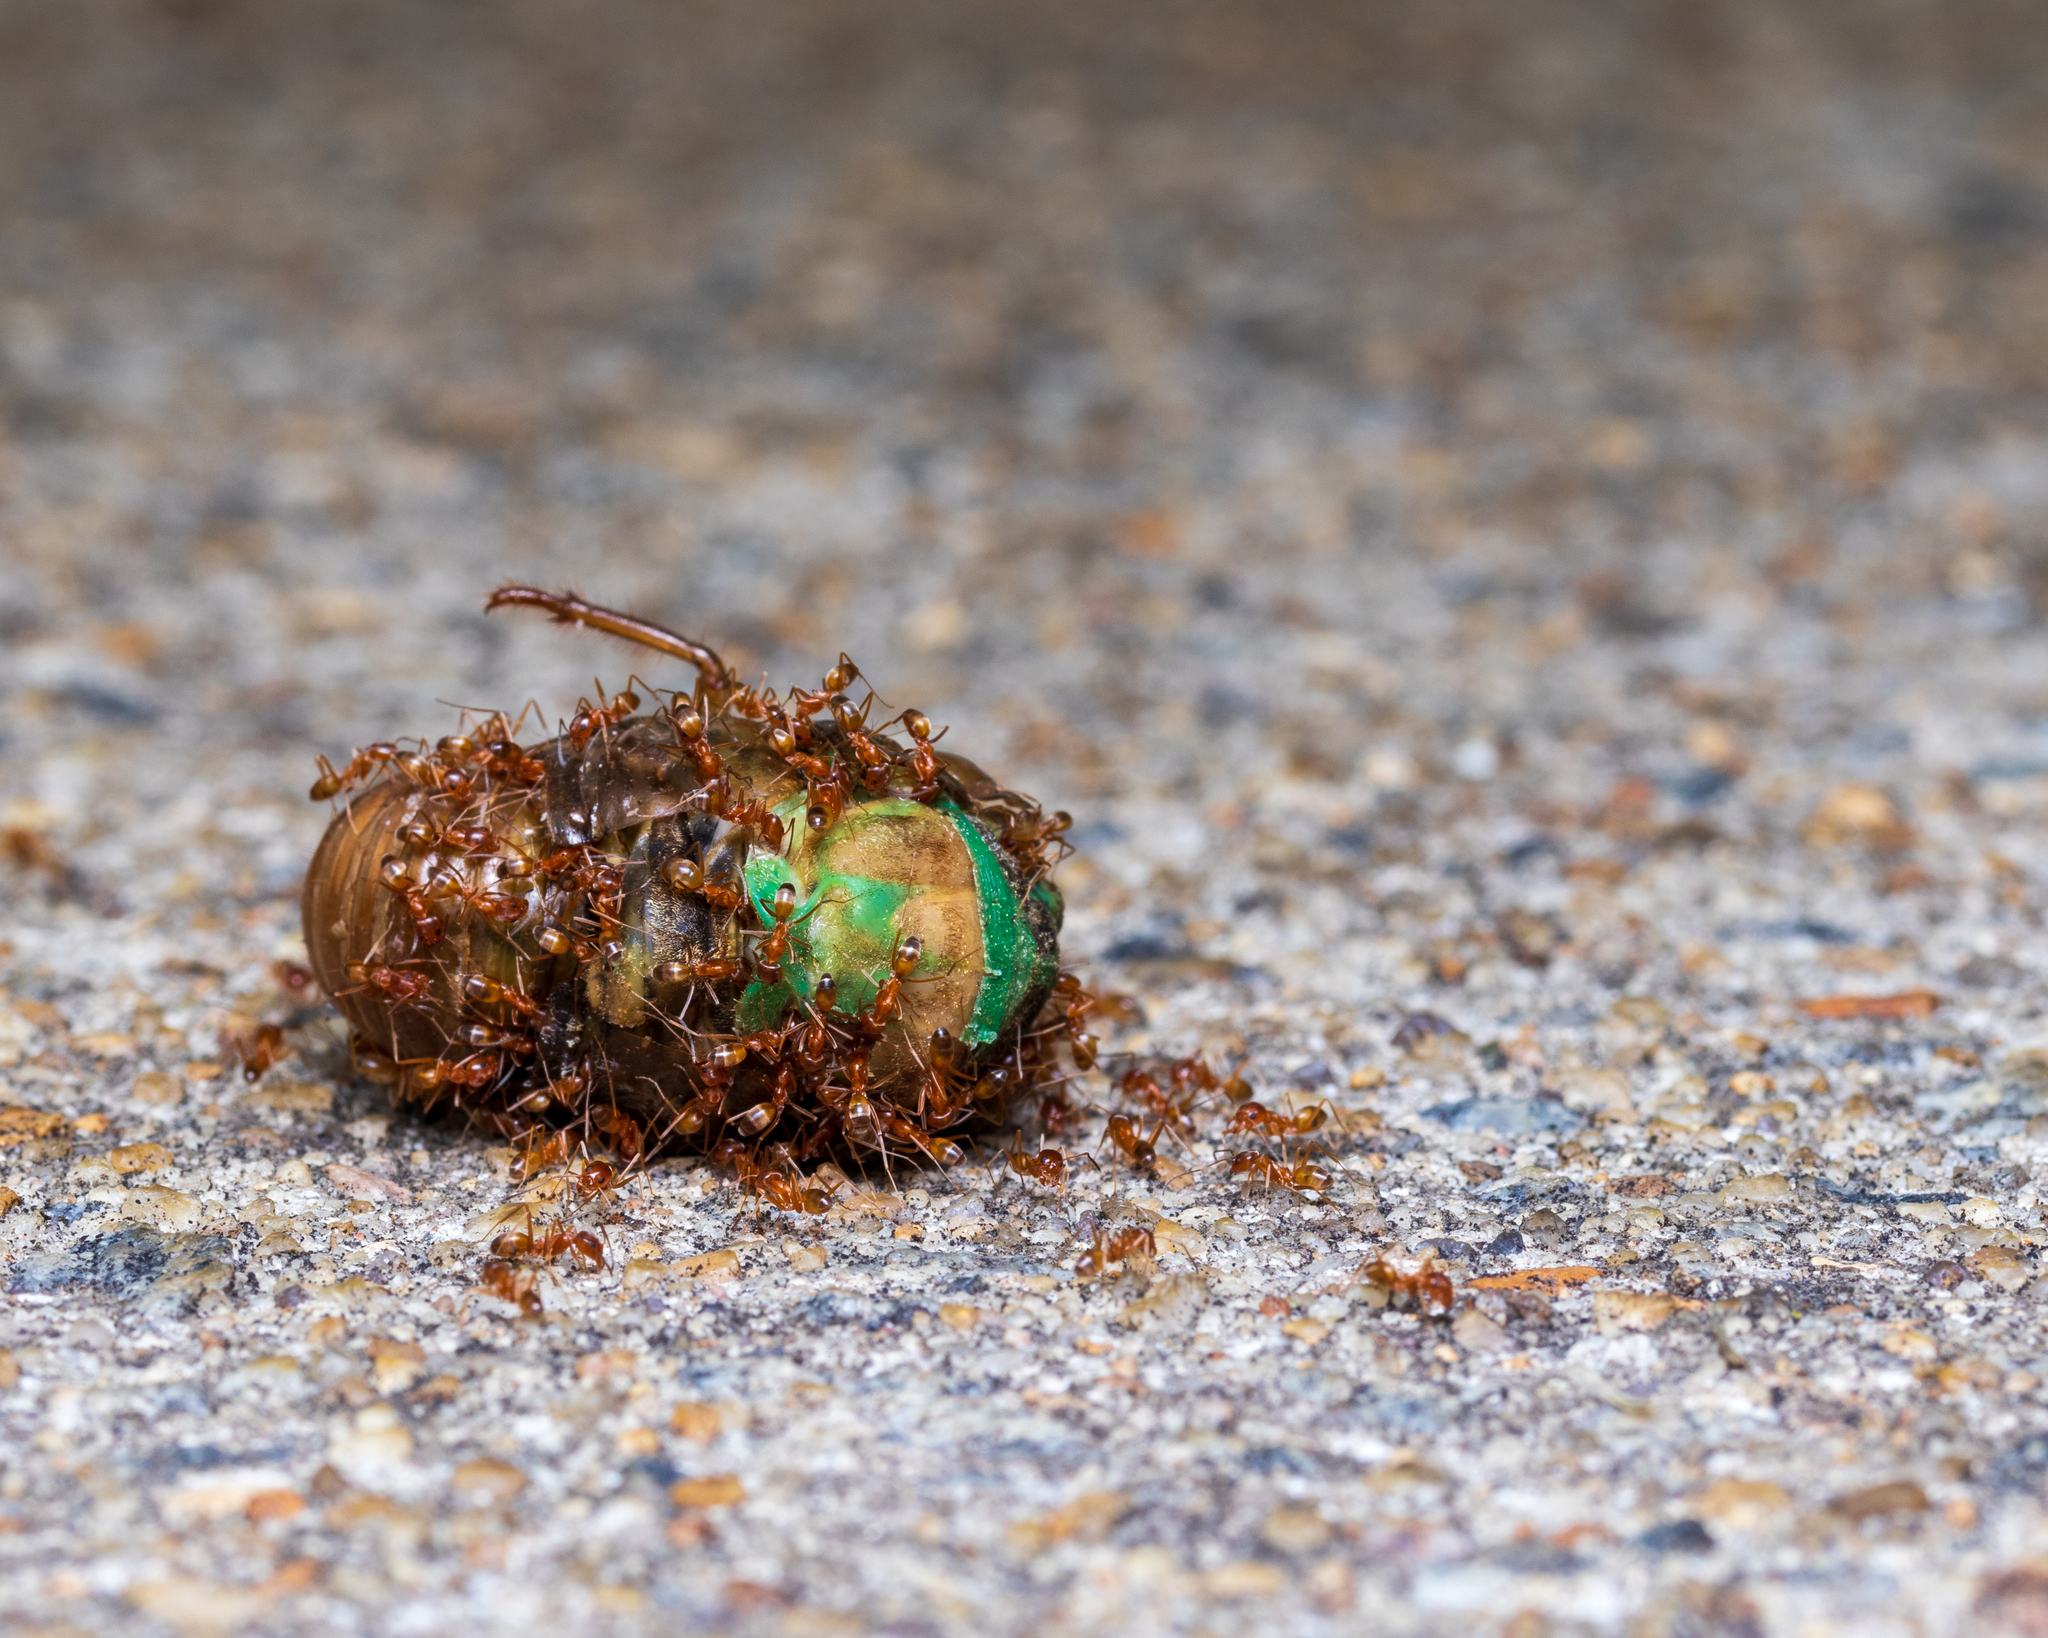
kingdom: Animalia
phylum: Arthropoda
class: Insecta
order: Hymenoptera
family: Formicidae
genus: Dorymyrmex
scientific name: Dorymyrmex bureni
